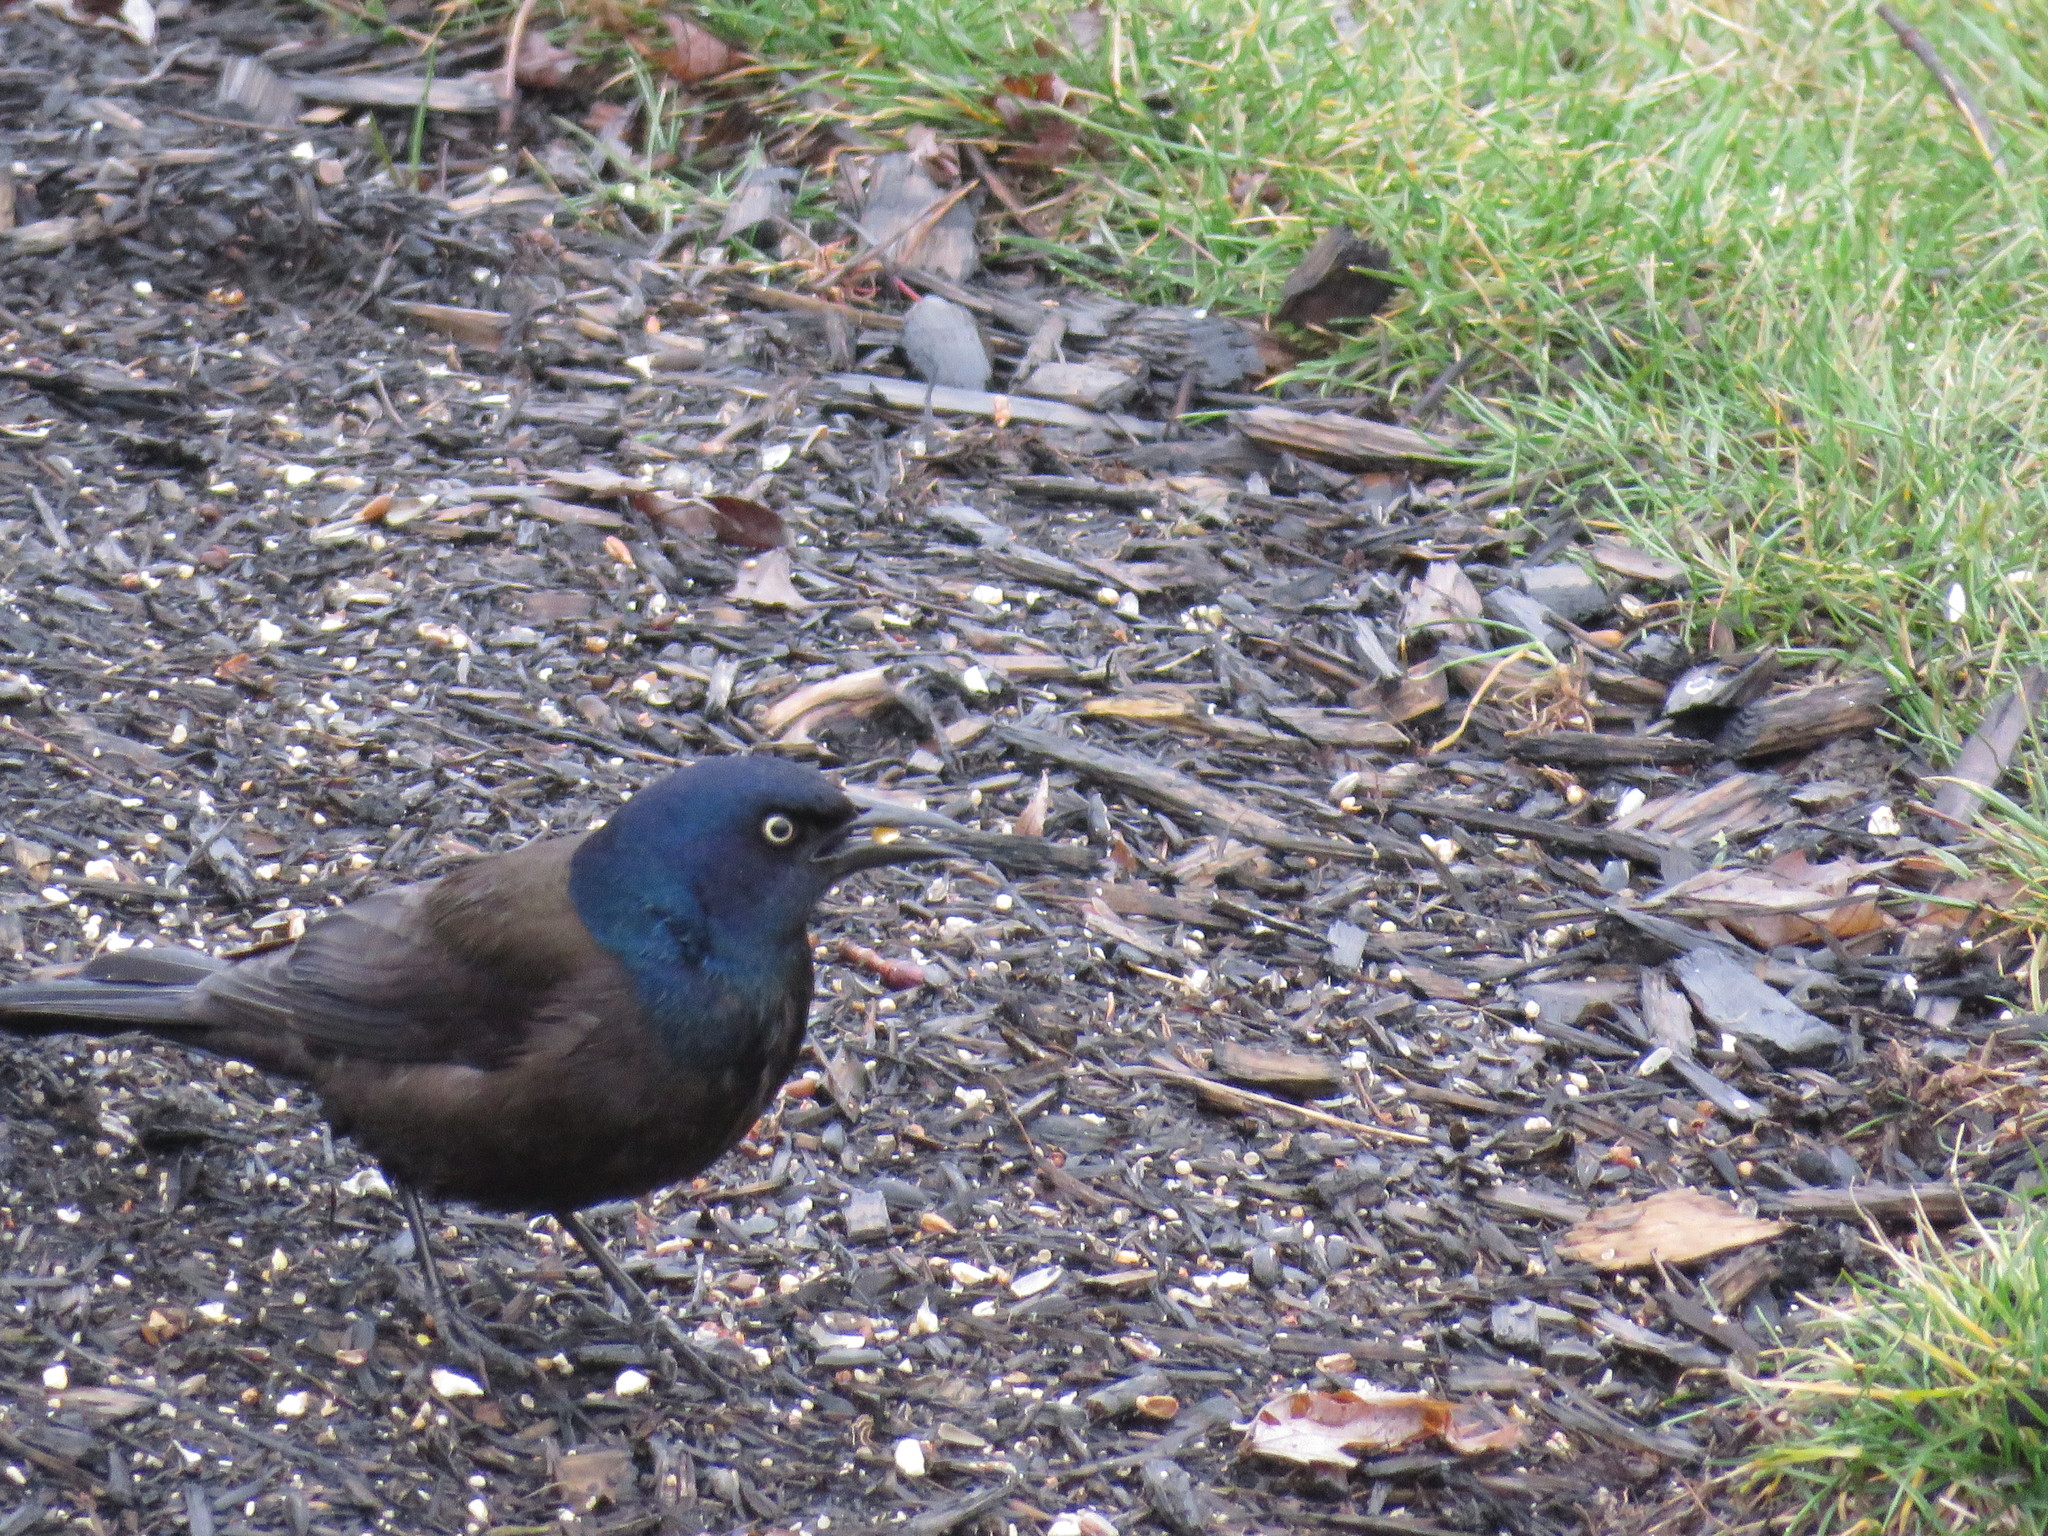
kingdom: Animalia
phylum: Chordata
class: Aves
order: Passeriformes
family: Icteridae
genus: Quiscalus
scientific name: Quiscalus quiscula
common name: Common grackle
